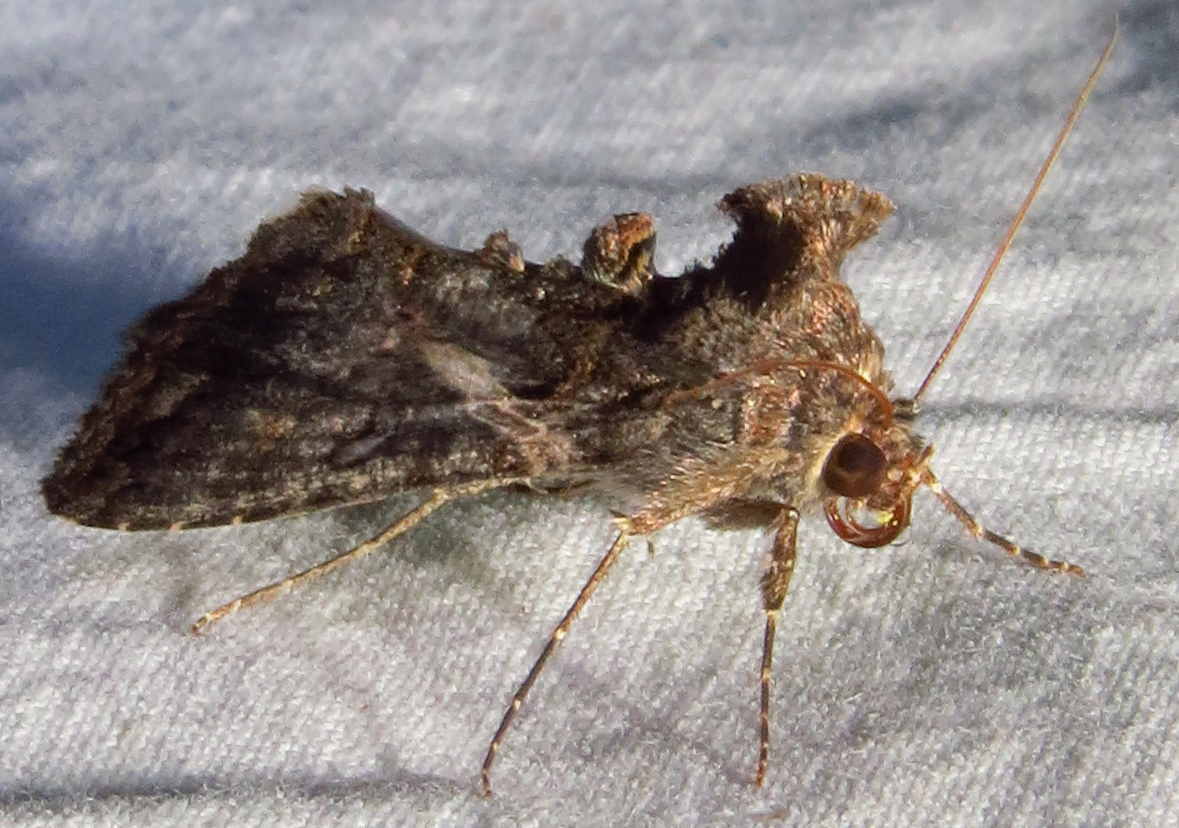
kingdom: Animalia
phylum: Arthropoda
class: Insecta
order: Lepidoptera
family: Noctuidae
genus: Ctenoplusia
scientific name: Ctenoplusia oxygramma
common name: Sharp-stigma looper moth
